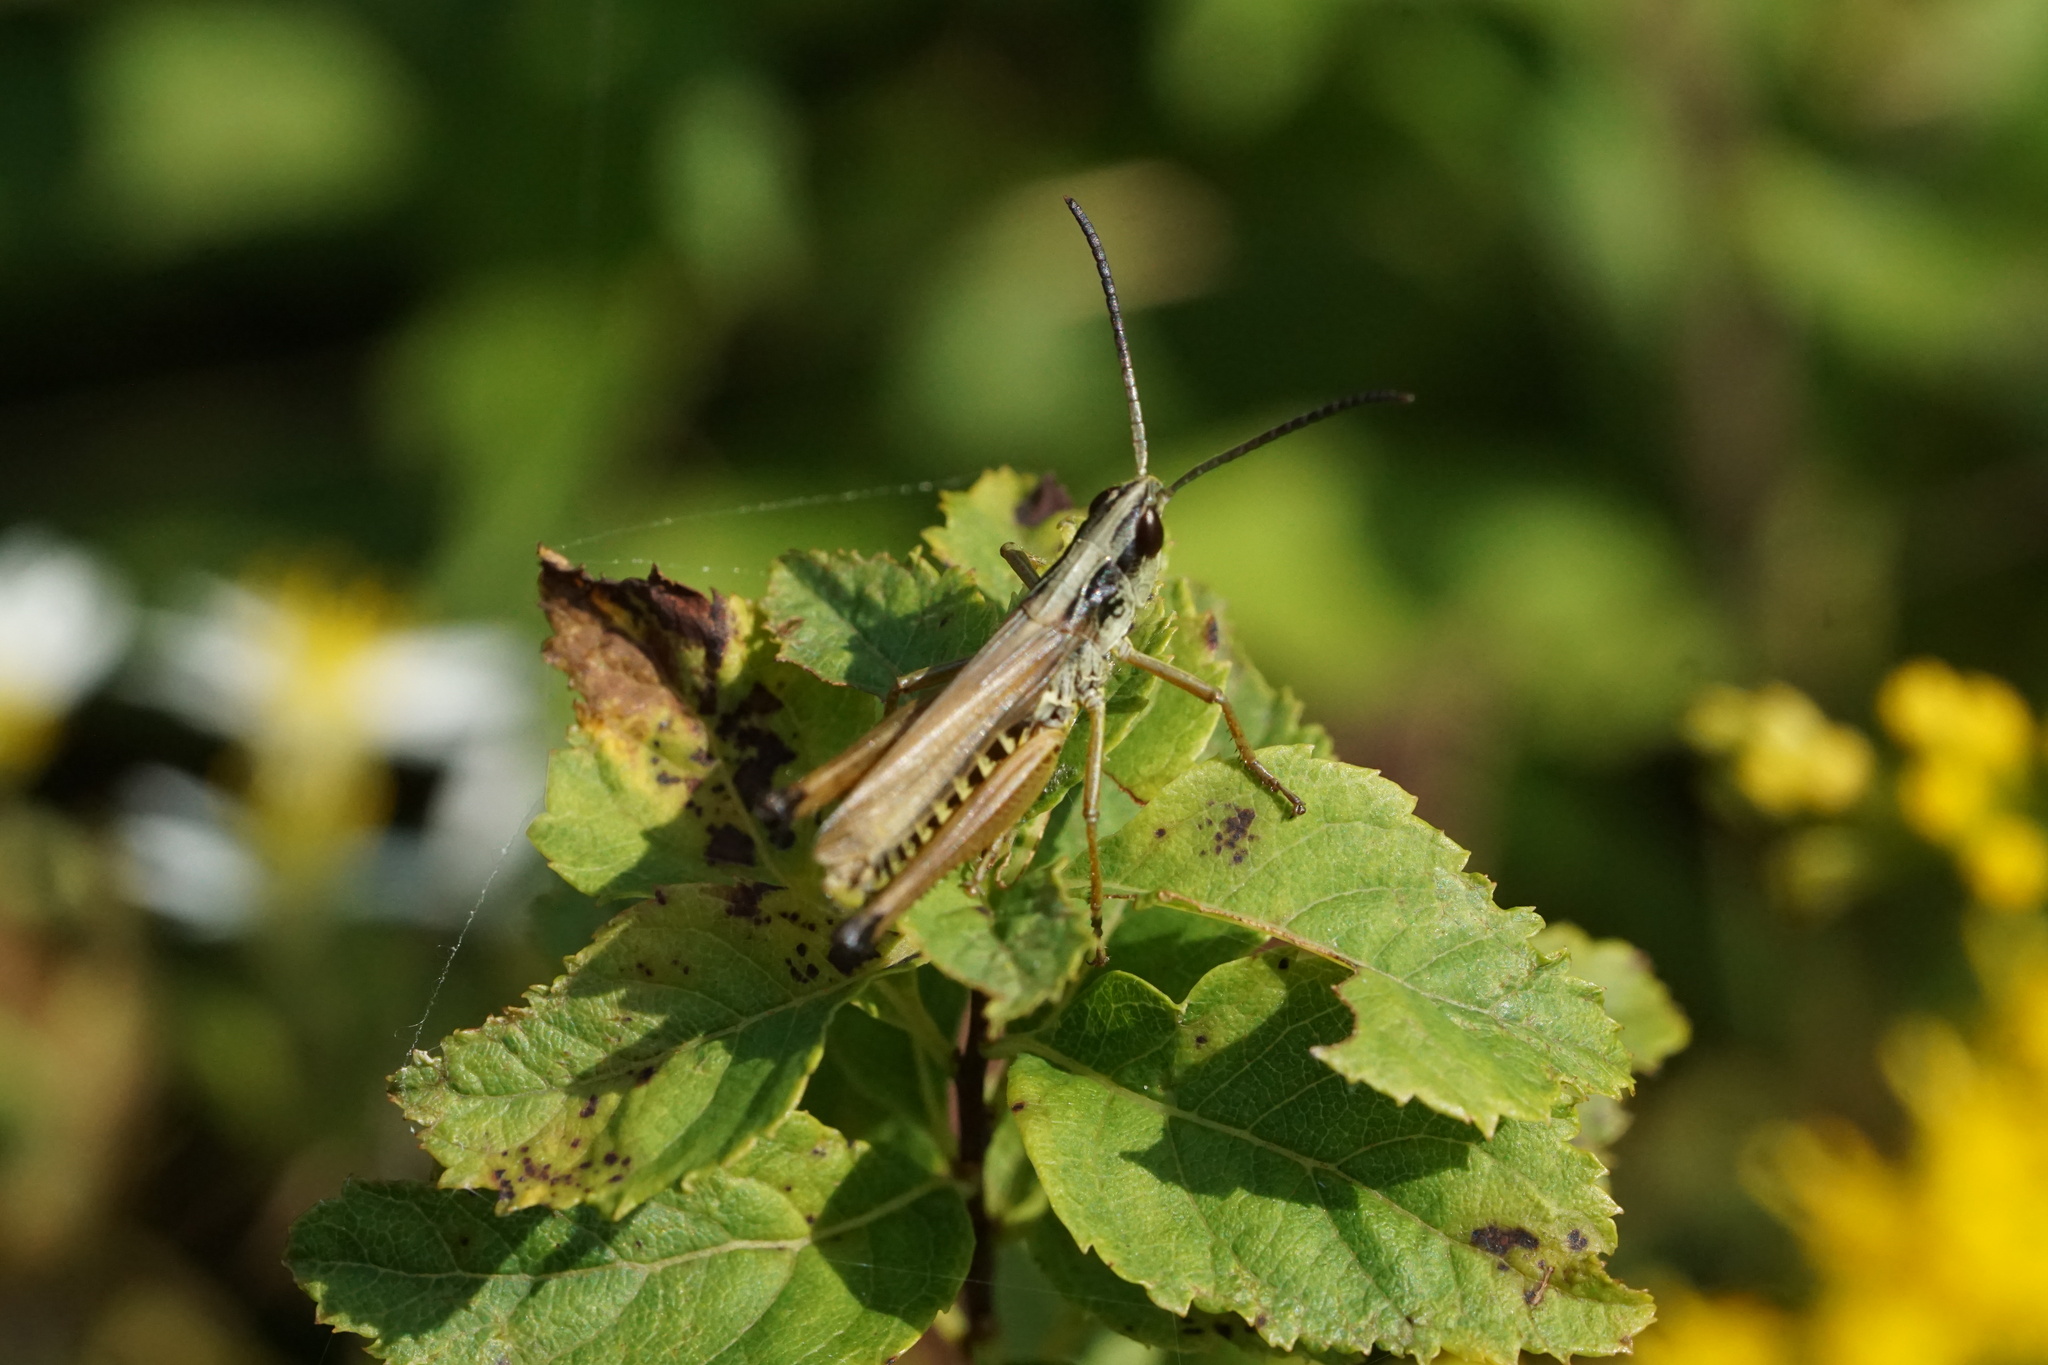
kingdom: Animalia
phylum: Arthropoda
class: Insecta
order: Orthoptera
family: Acrididae
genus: Pseudochorthippus
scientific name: Pseudochorthippus curtipennis
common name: Marsh meadow grasshopper
